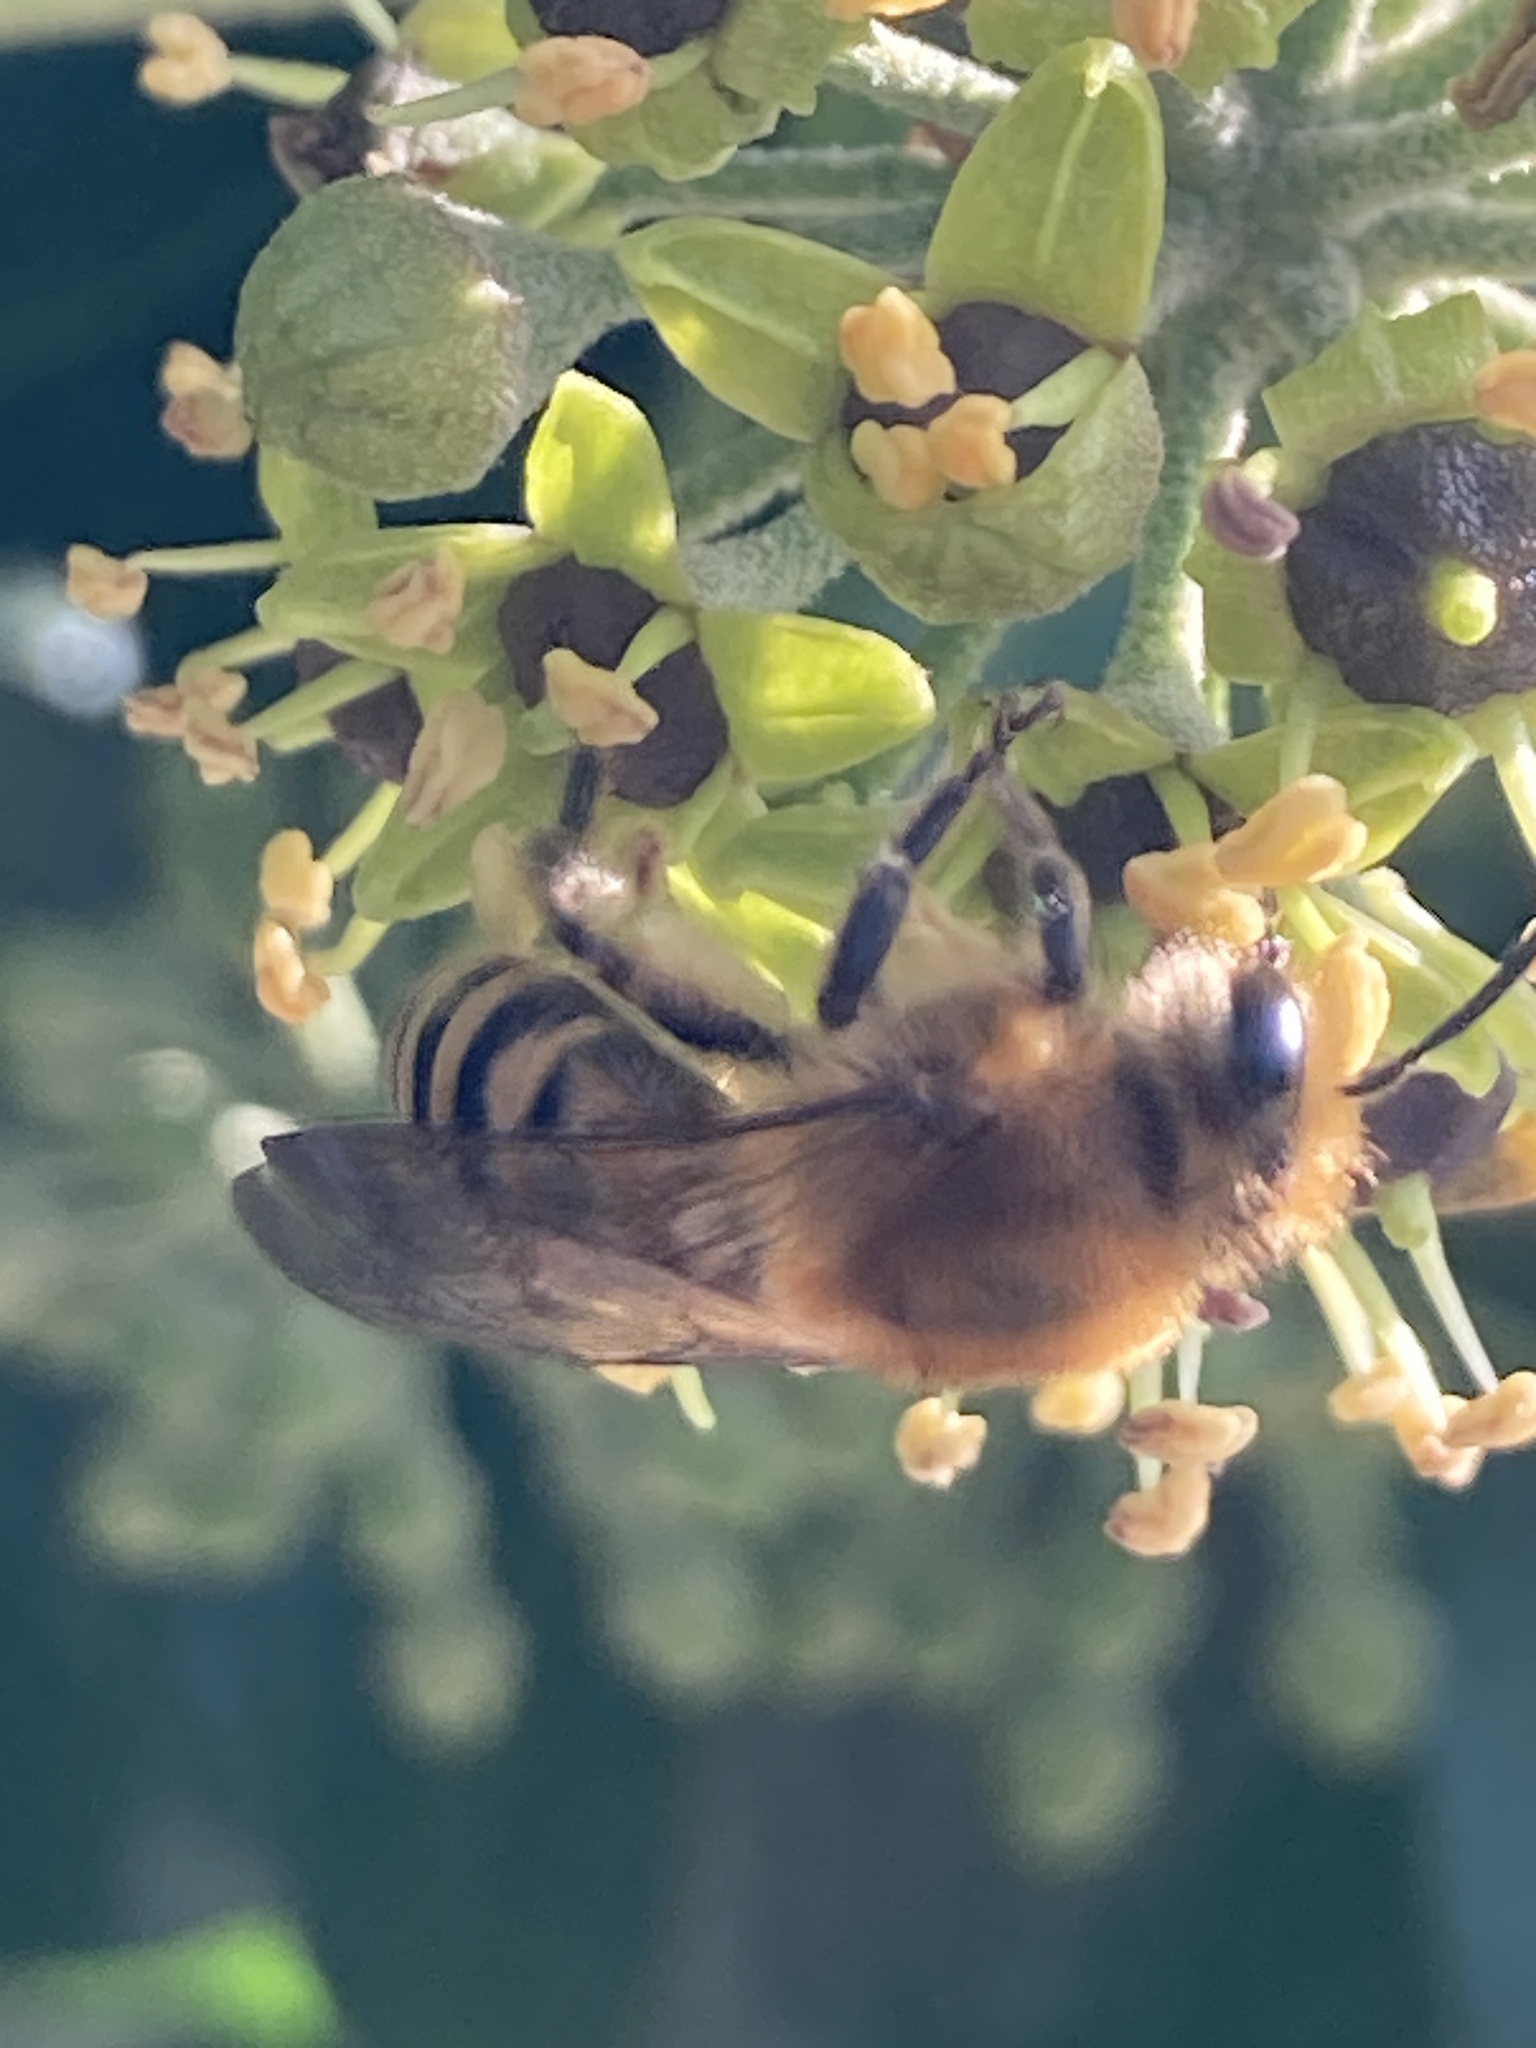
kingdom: Animalia
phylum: Arthropoda
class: Insecta
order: Hymenoptera
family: Colletidae
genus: Colletes
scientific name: Colletes hederae
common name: Ivy bee
